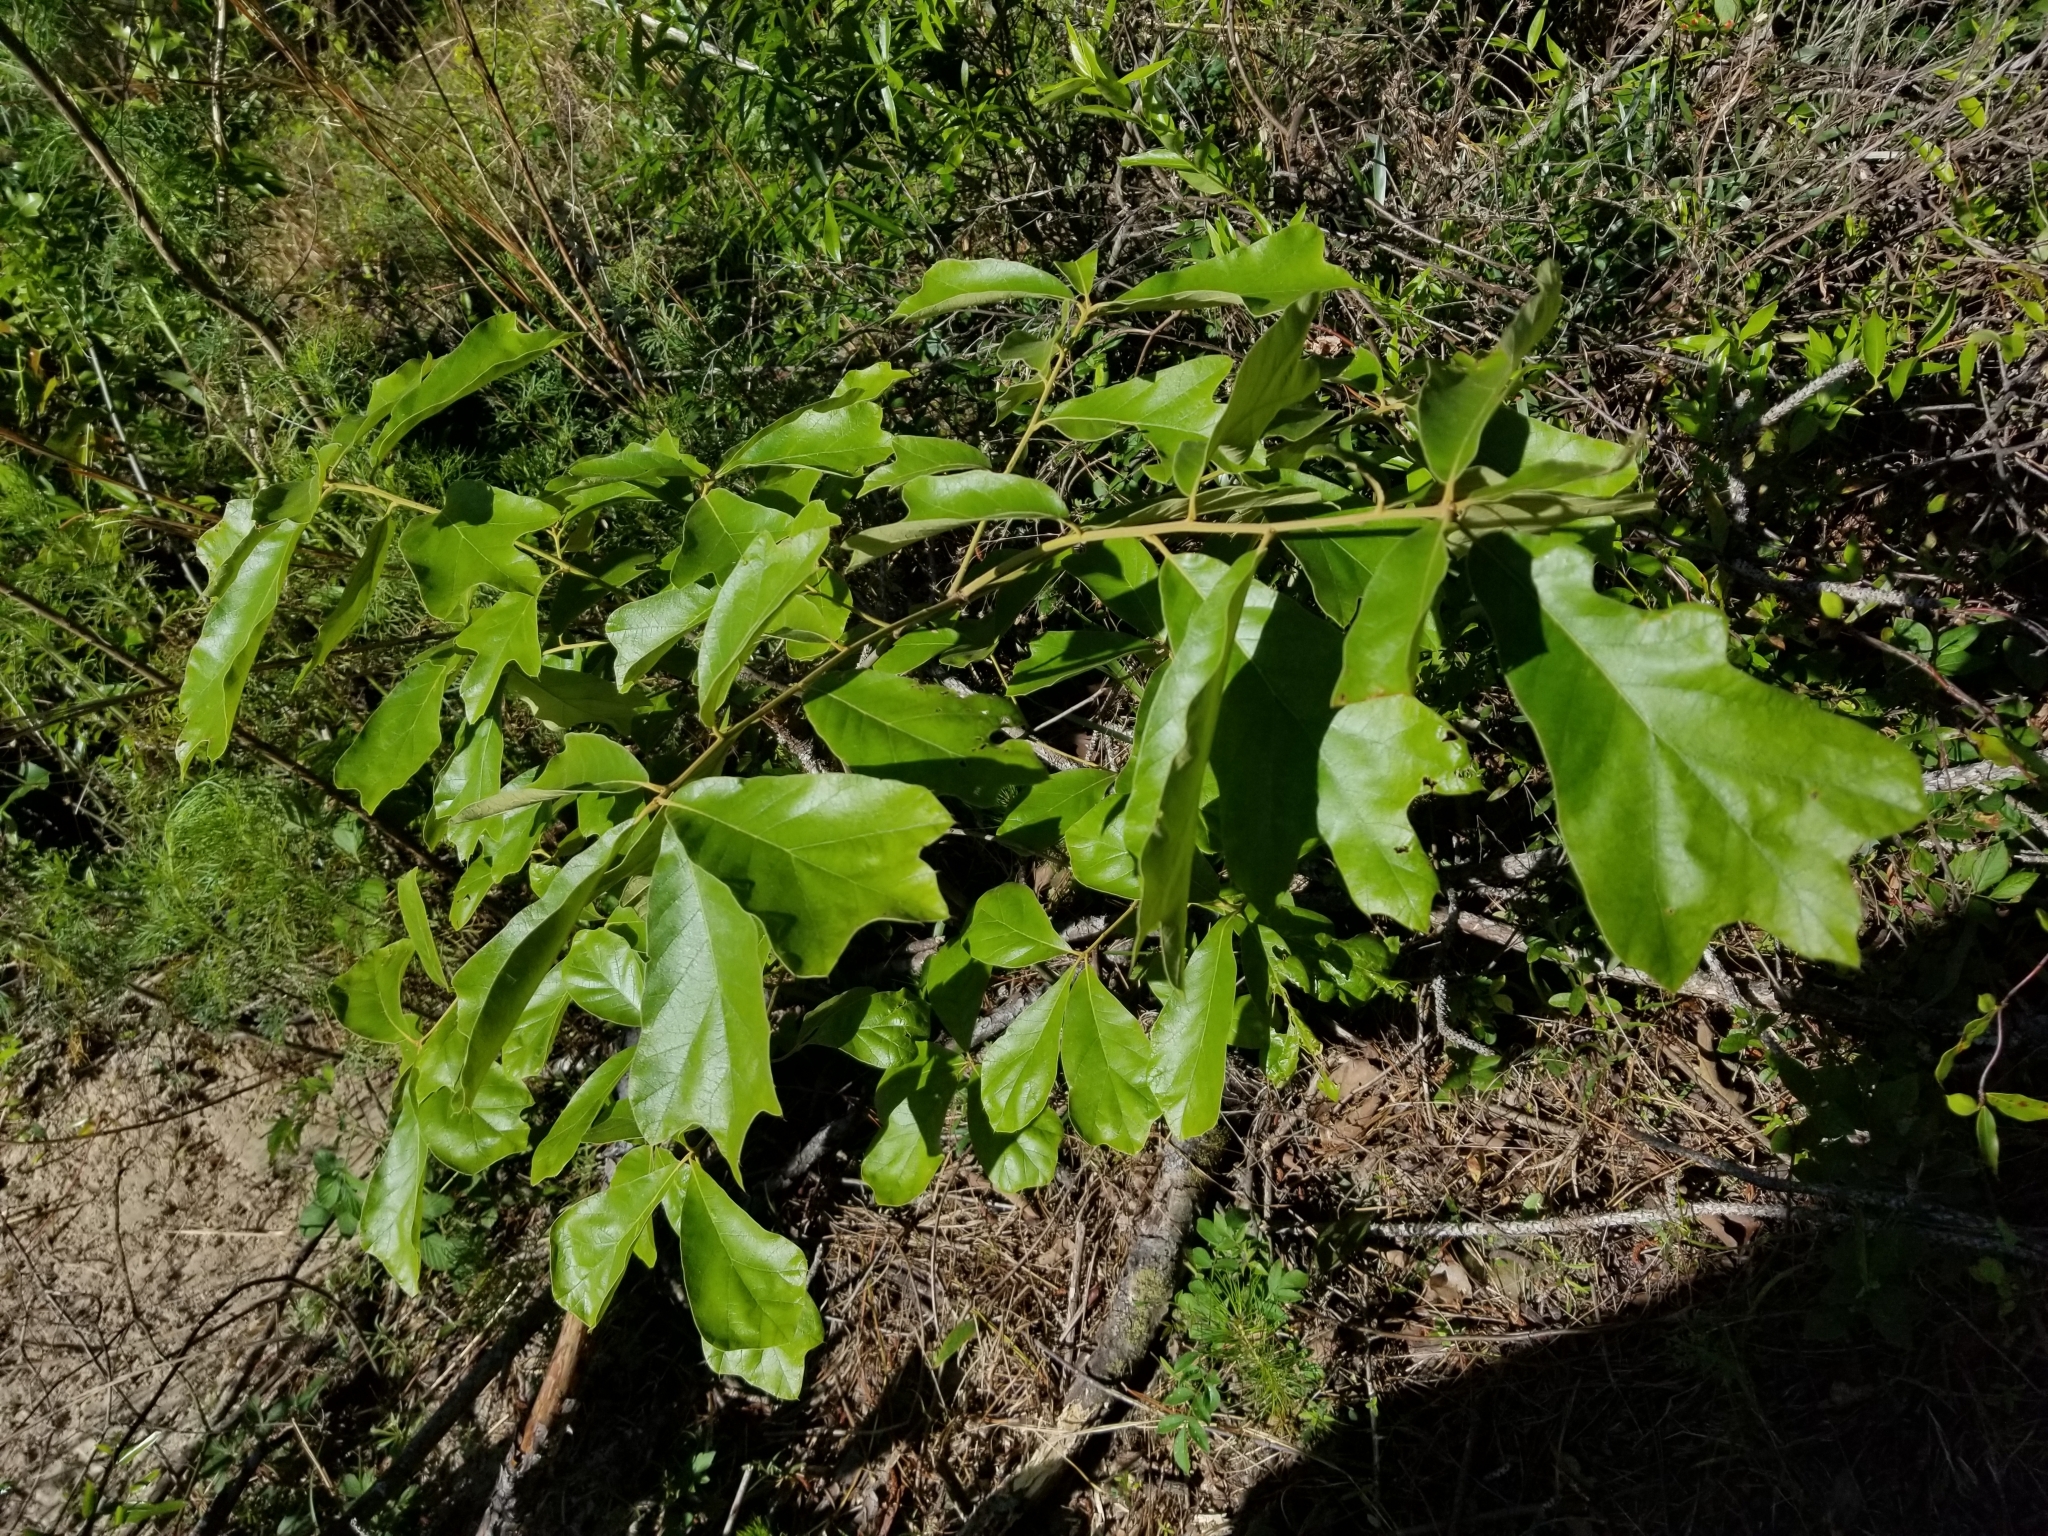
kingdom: Plantae
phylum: Tracheophyta
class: Magnoliopsida
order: Fagales
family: Fagaceae
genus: Quercus
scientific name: Quercus falcata
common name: Southern red oak
